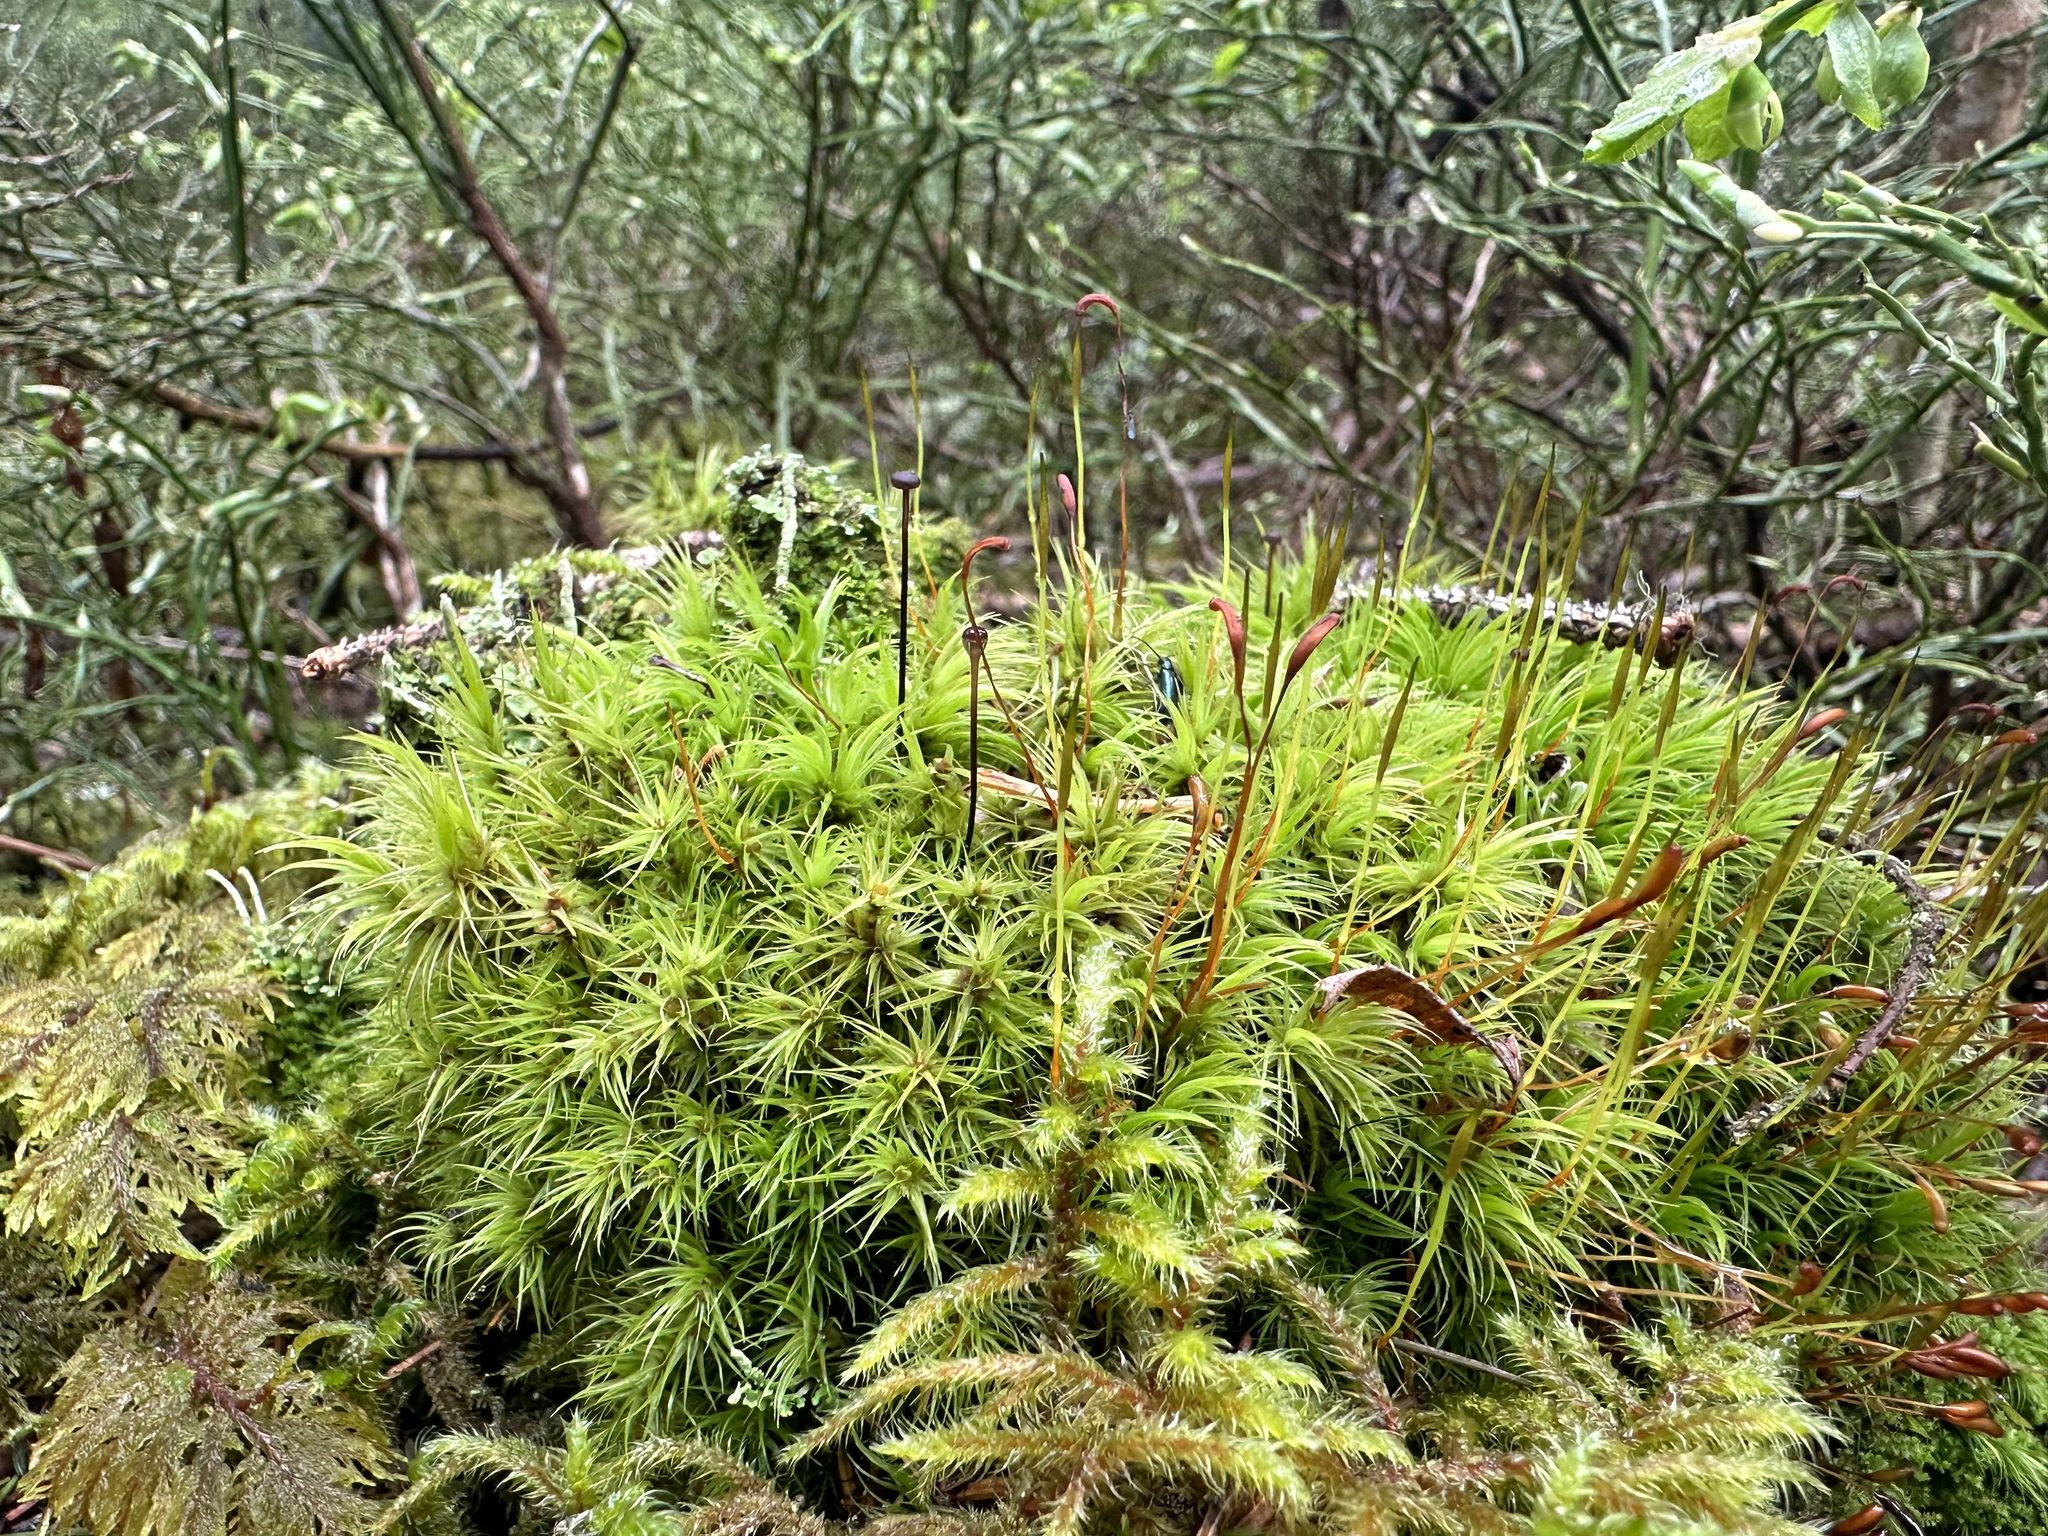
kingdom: Plantae
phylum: Bryophyta
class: Bryopsida
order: Dicranales
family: Dicranaceae
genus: Dicranum
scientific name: Dicranum scoparium
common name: Broom fork-moss
